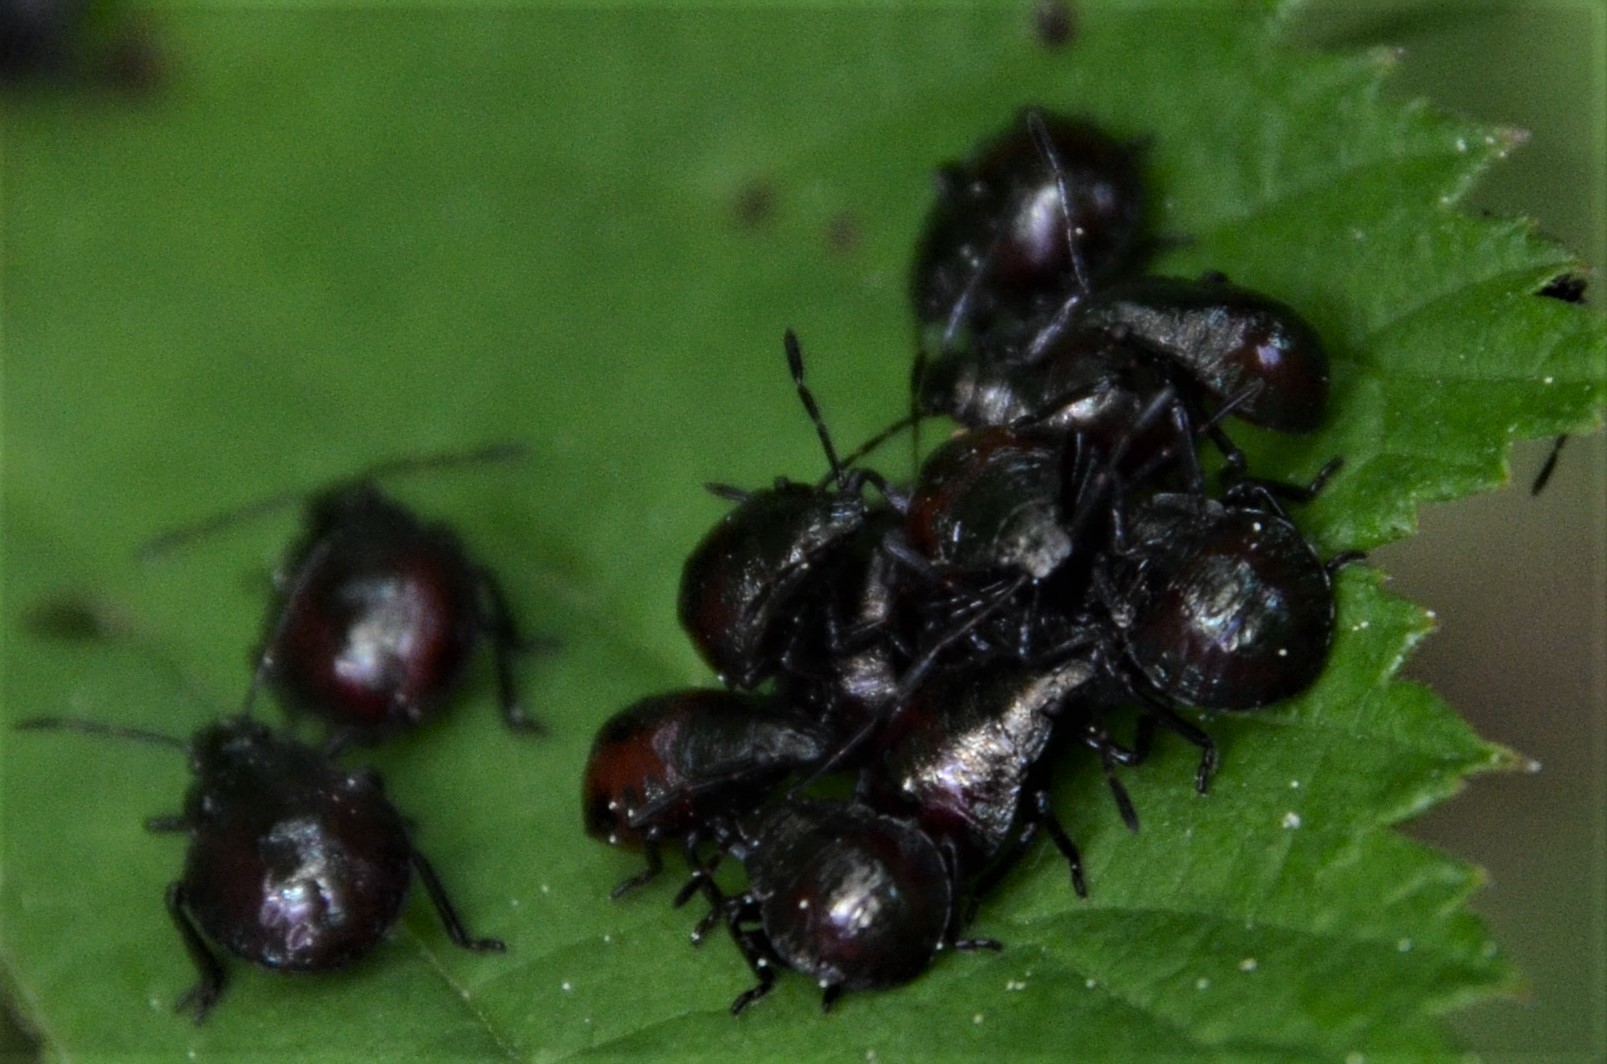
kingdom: Animalia
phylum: Arthropoda
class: Insecta
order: Hemiptera
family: Pentatomidae
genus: Picromerus
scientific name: Picromerus bidens
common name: Spiked shieldbug
